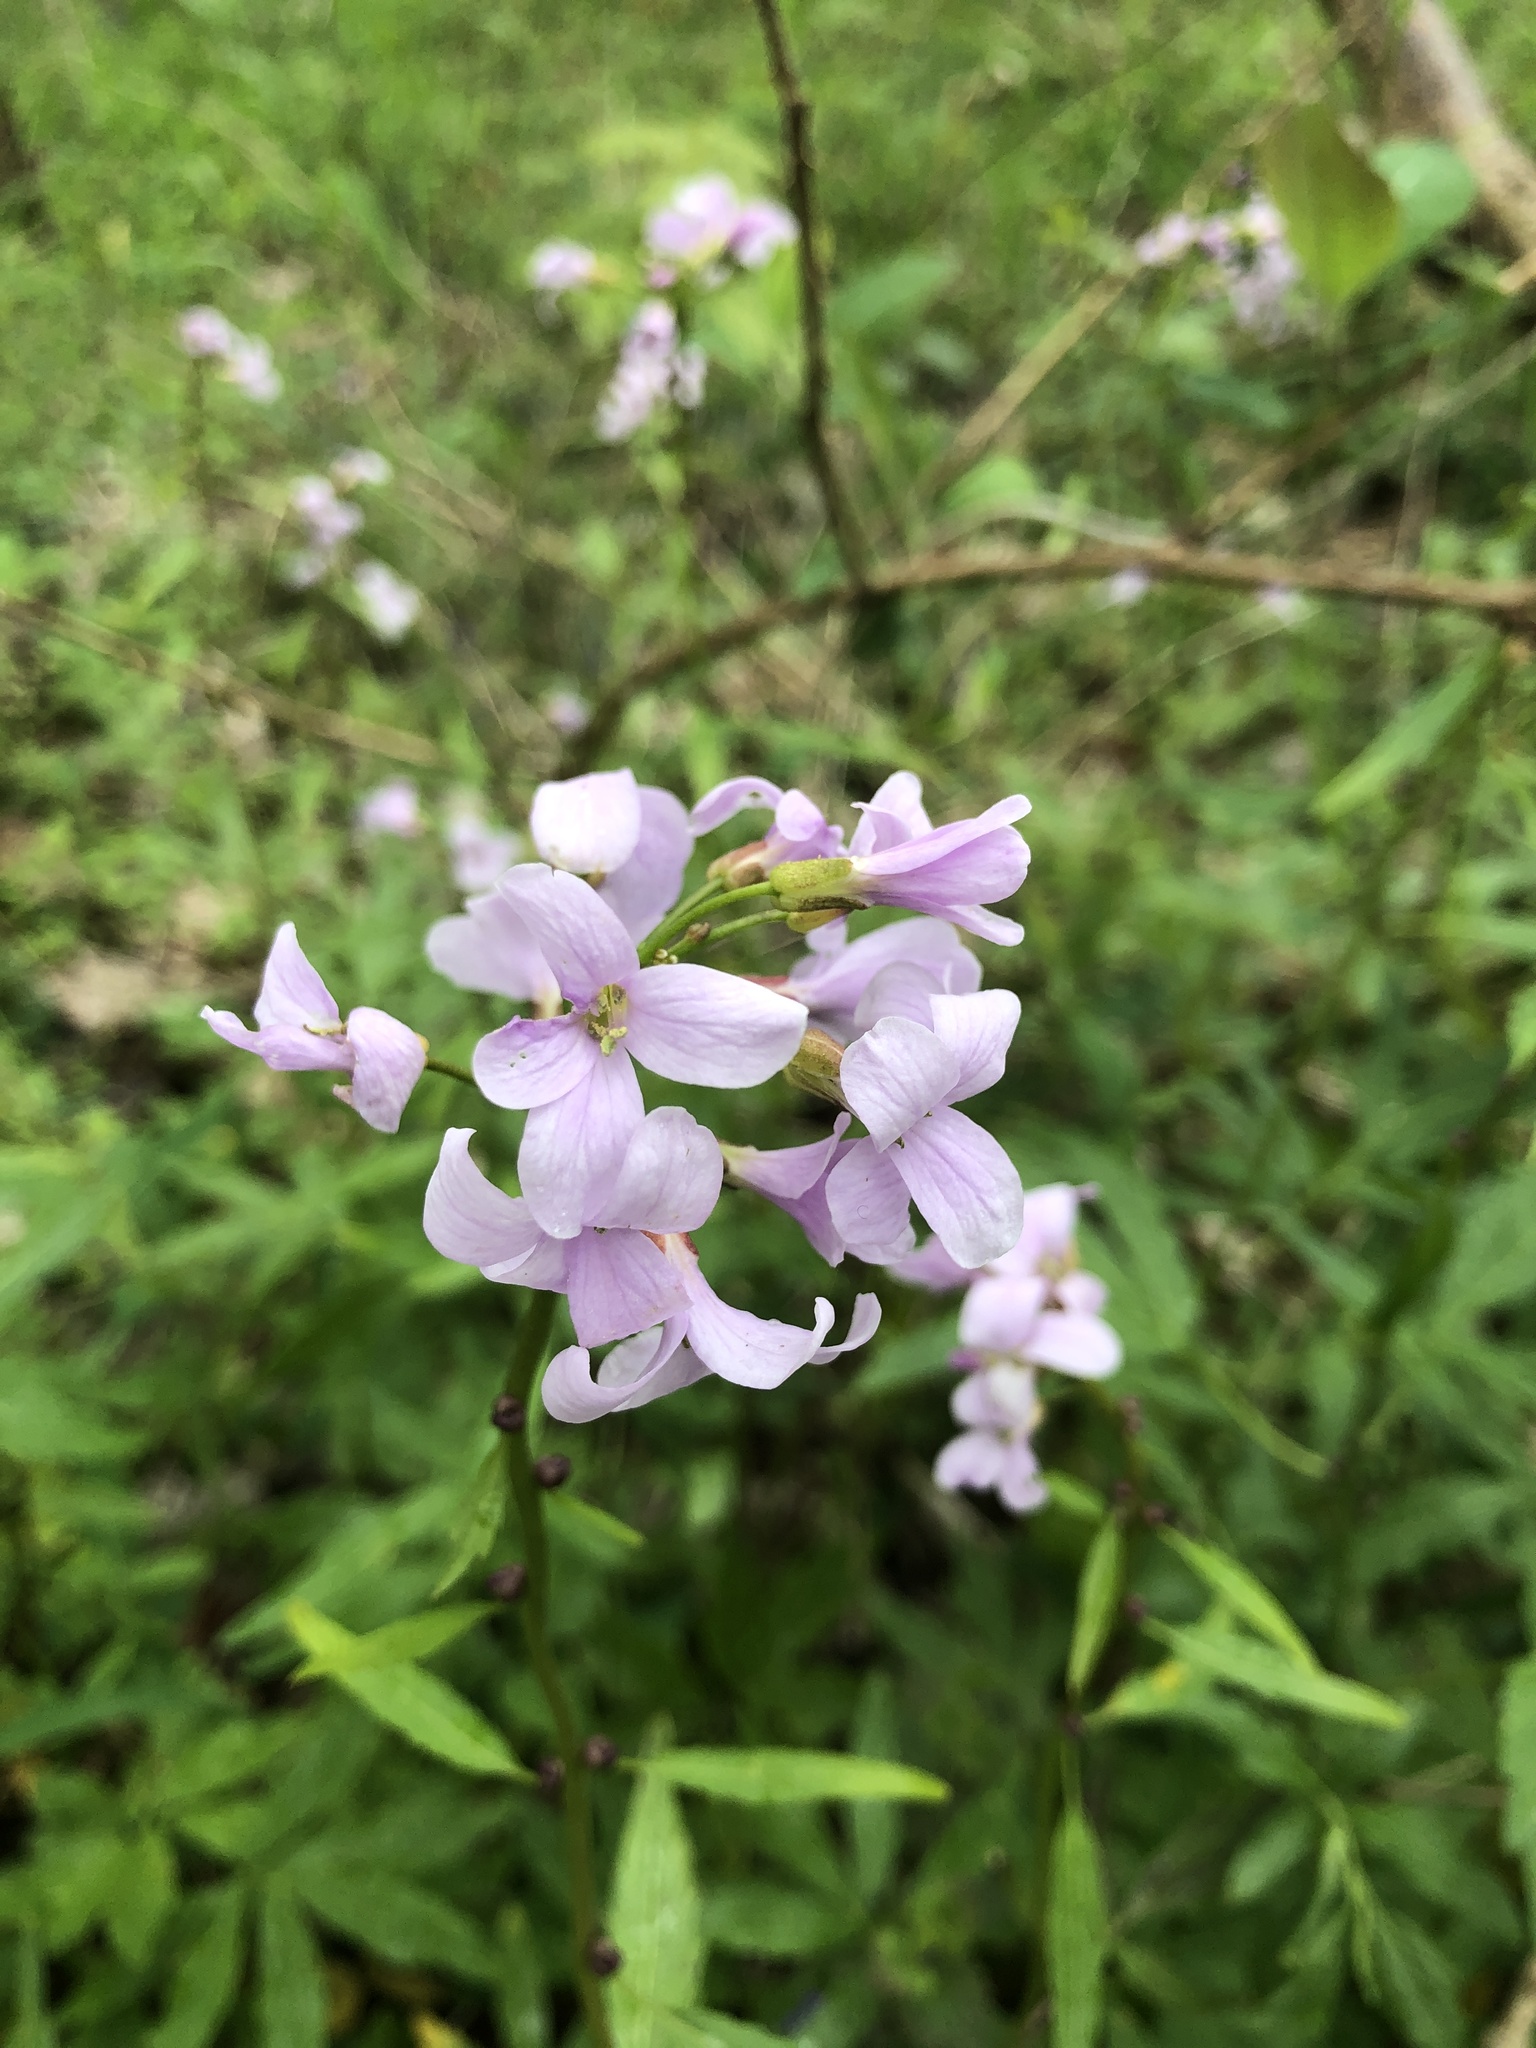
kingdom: Plantae
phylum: Tracheophyta
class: Magnoliopsida
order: Brassicales
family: Brassicaceae
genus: Cardamine
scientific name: Cardamine pratensis
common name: Cuckoo flower
